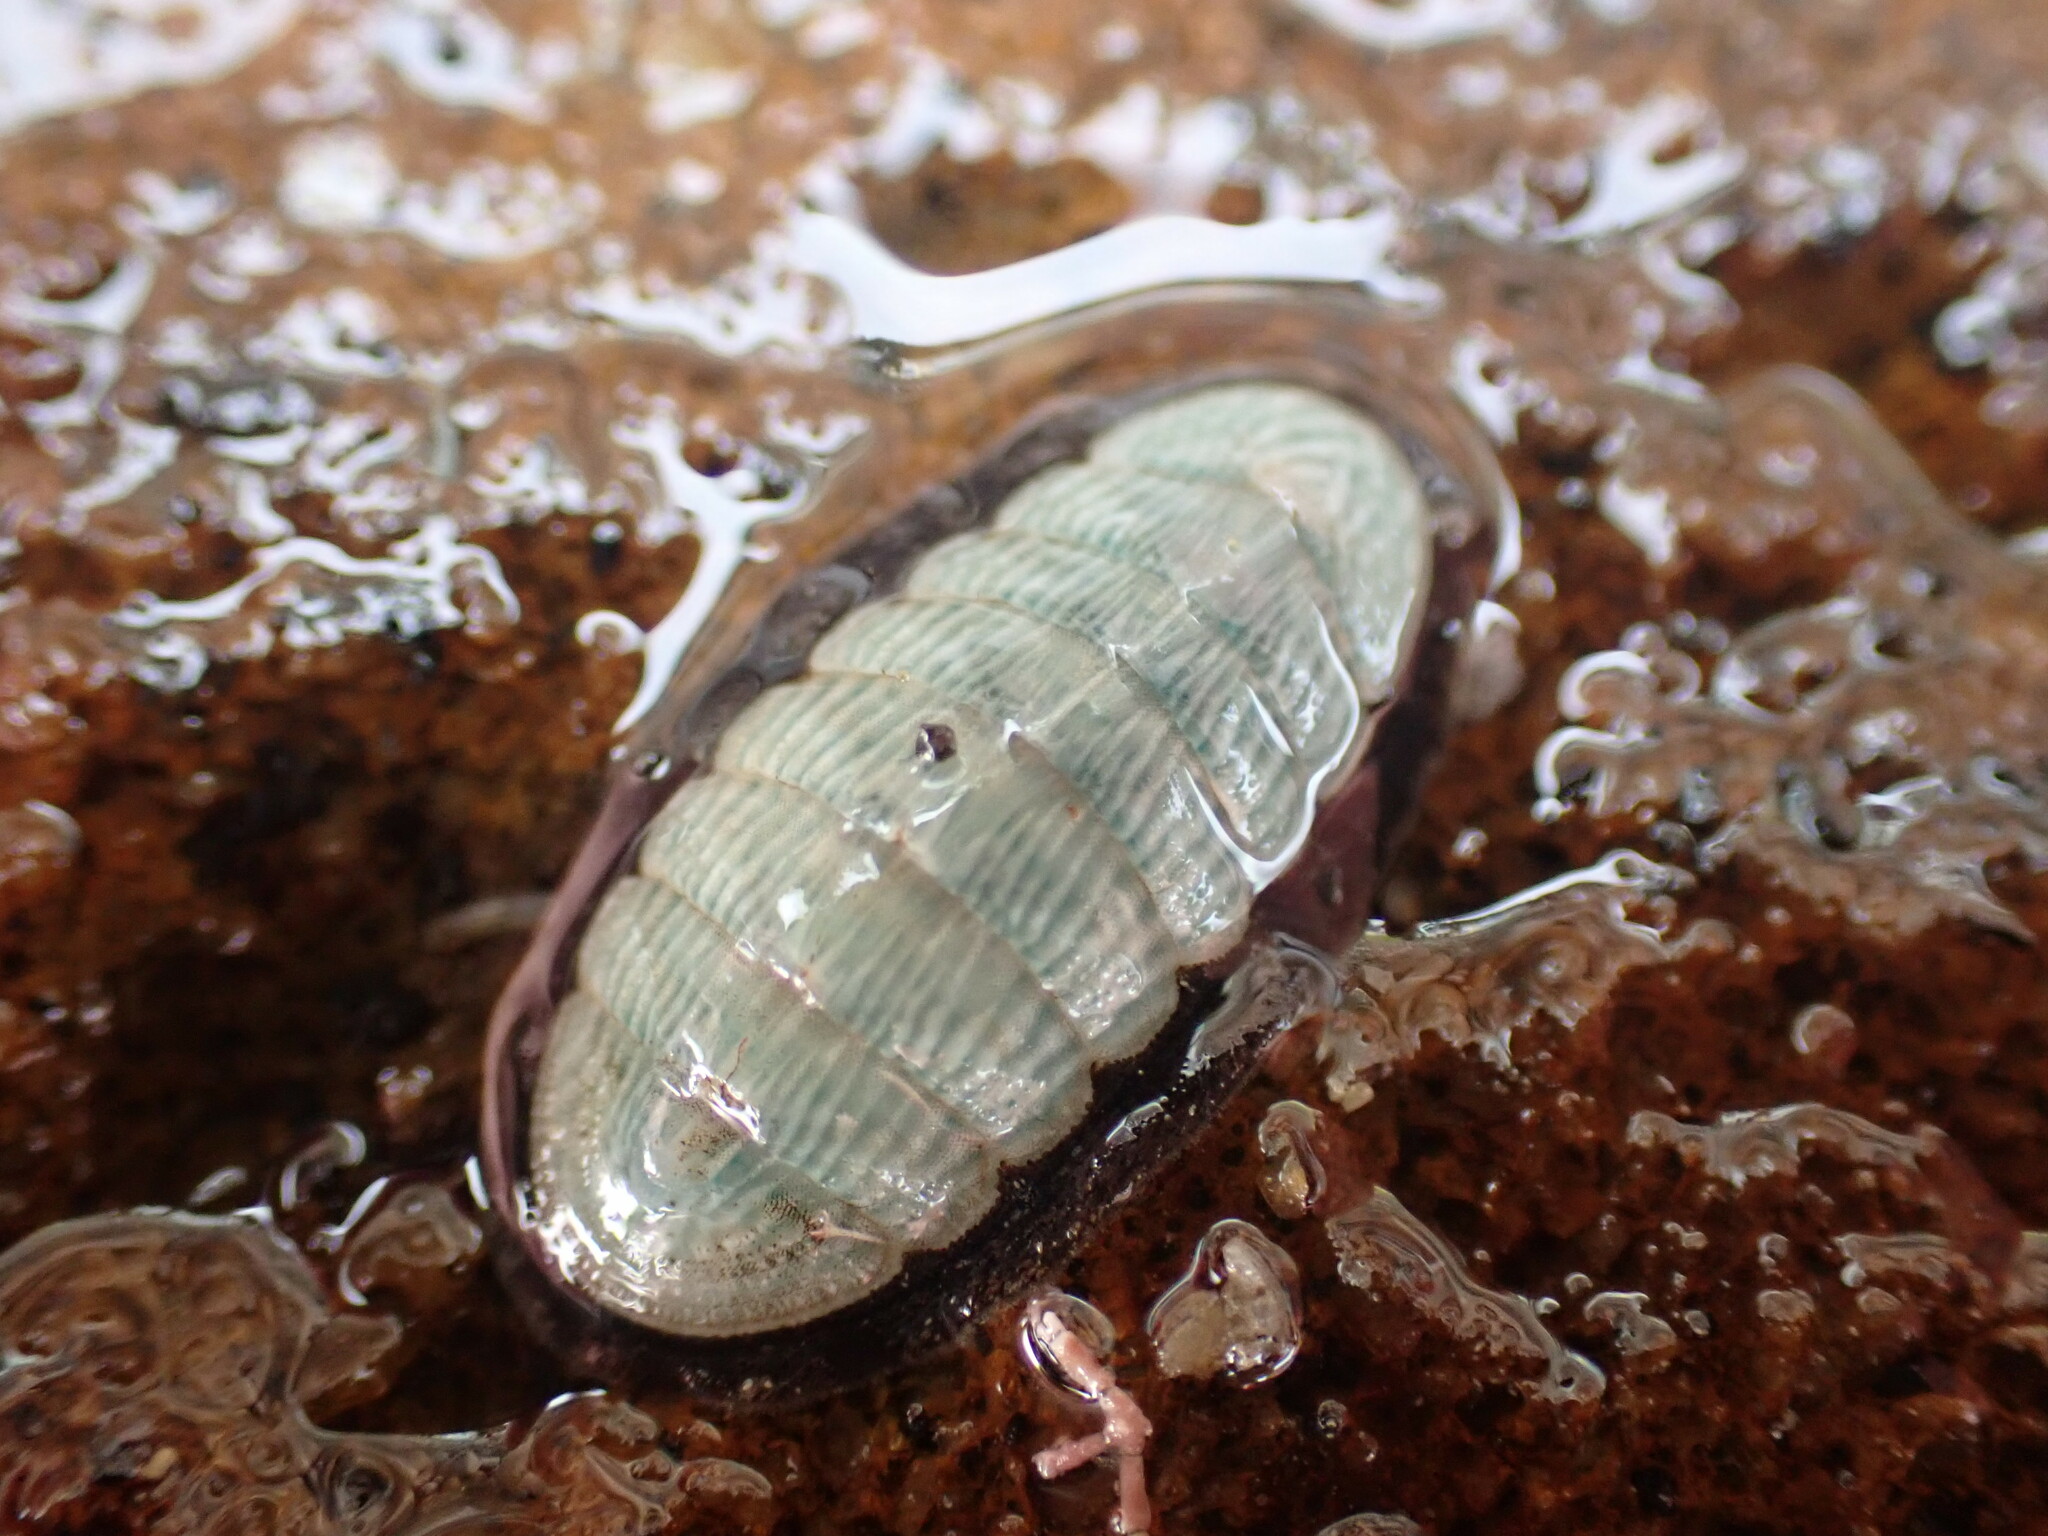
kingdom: Animalia
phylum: Mollusca
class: Polyplacophora
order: Chitonida
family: Ischnochitonidae
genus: Ischnochiton
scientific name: Ischnochiton maorianus
